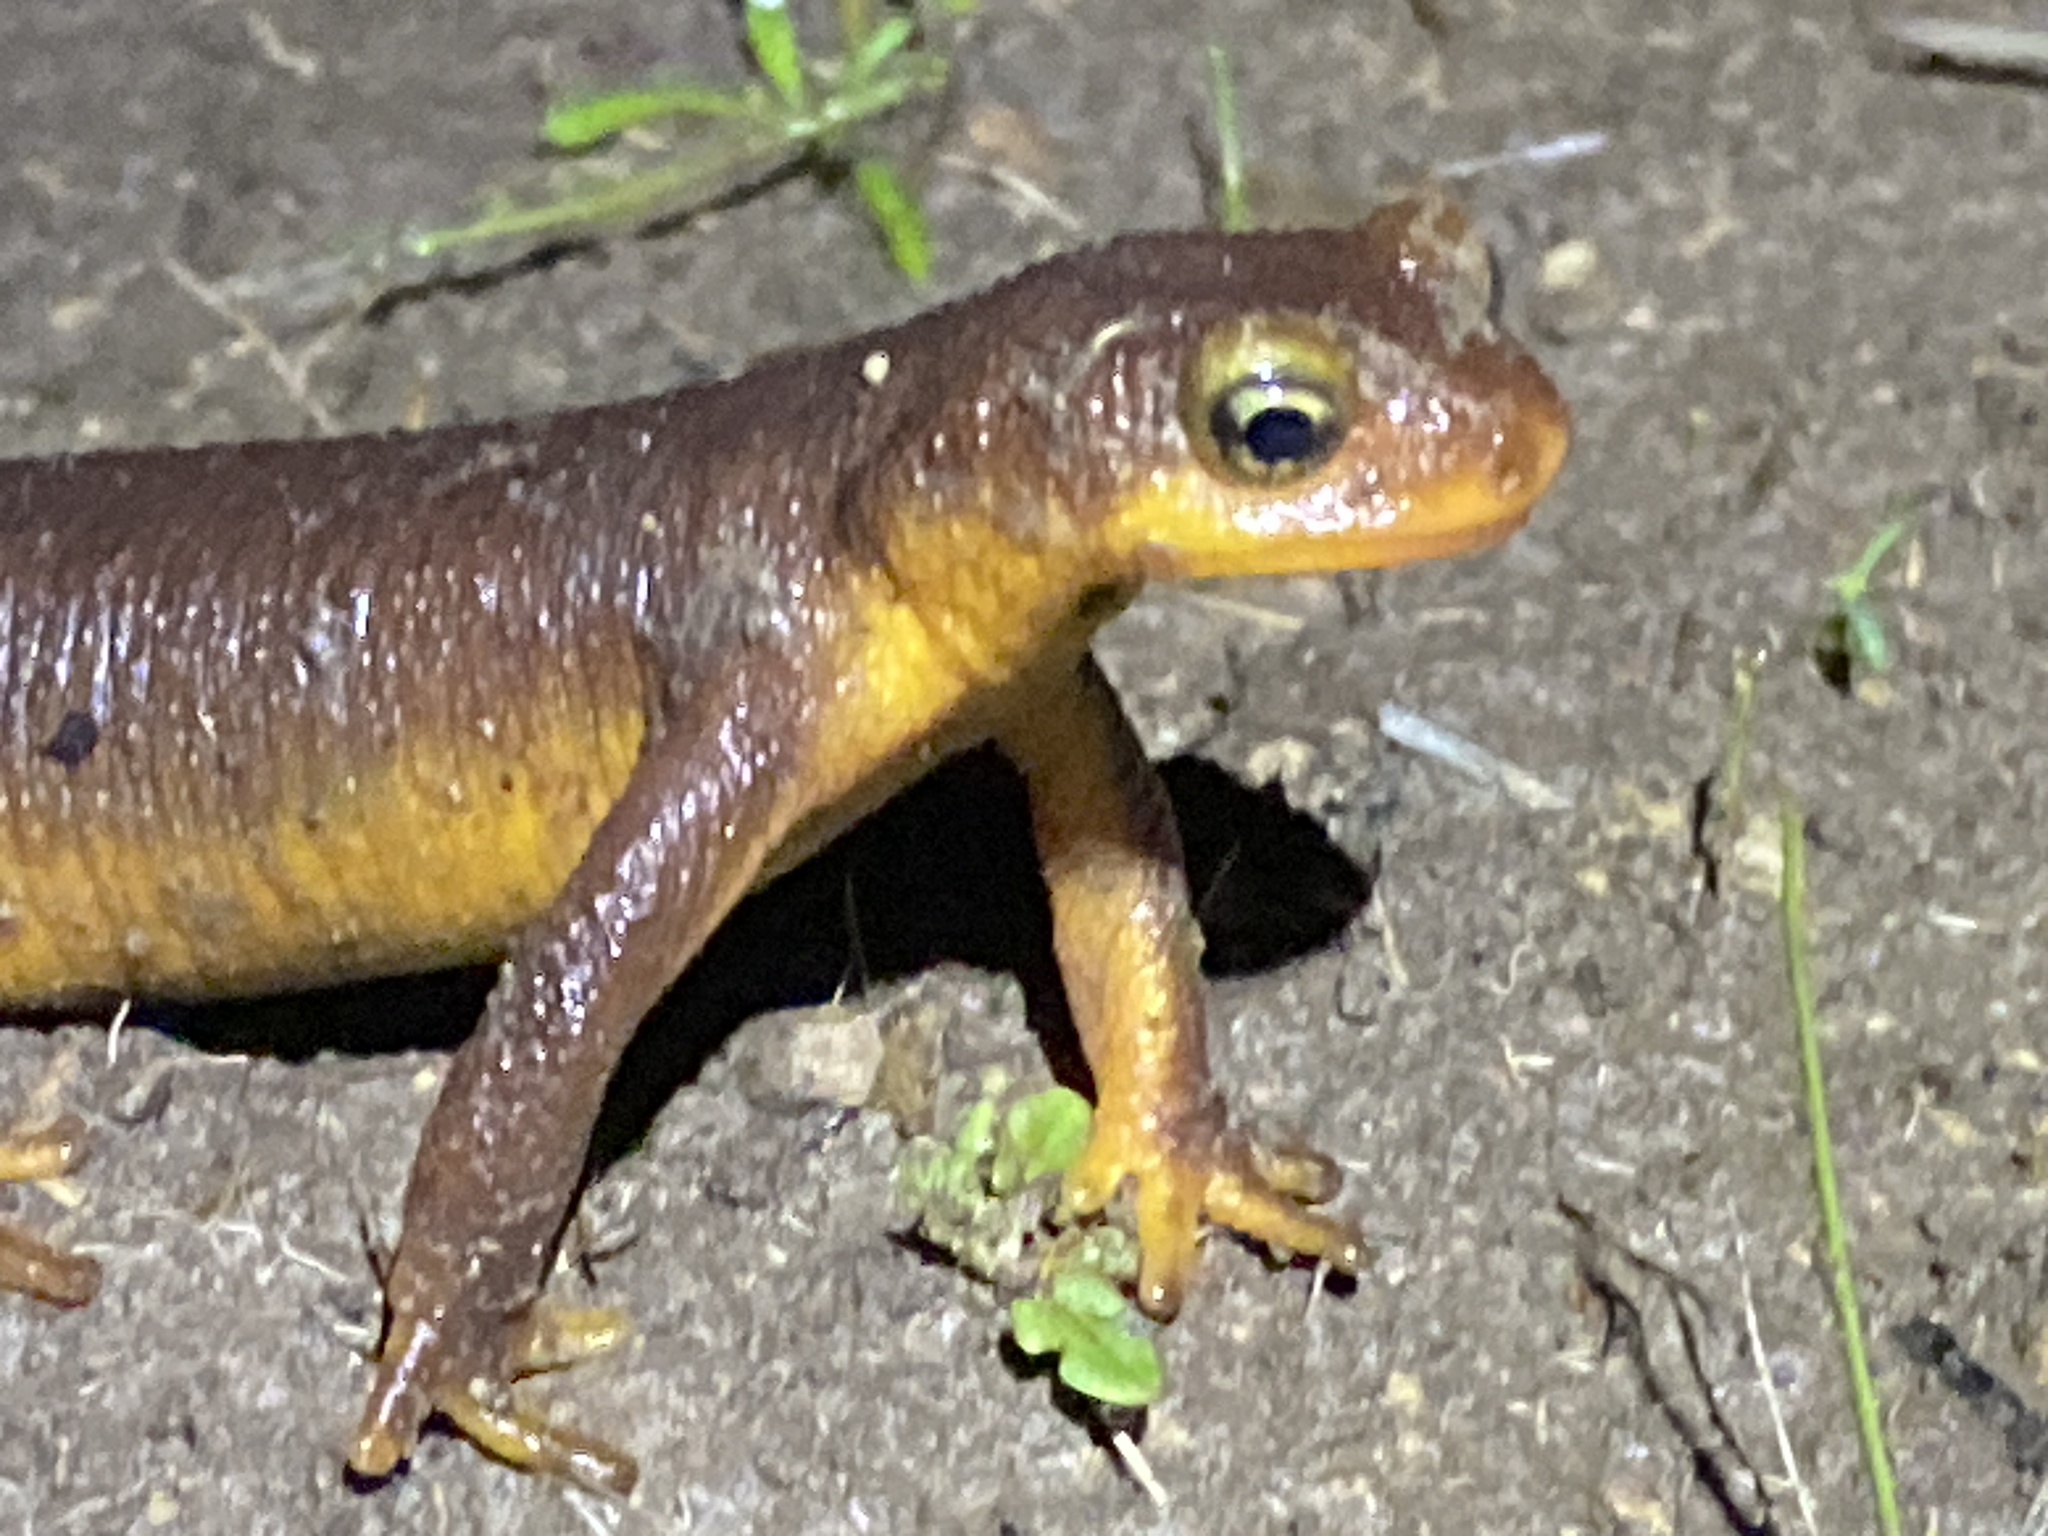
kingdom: Animalia
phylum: Chordata
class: Amphibia
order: Caudata
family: Salamandridae
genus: Taricha
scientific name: Taricha torosa
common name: California newt
